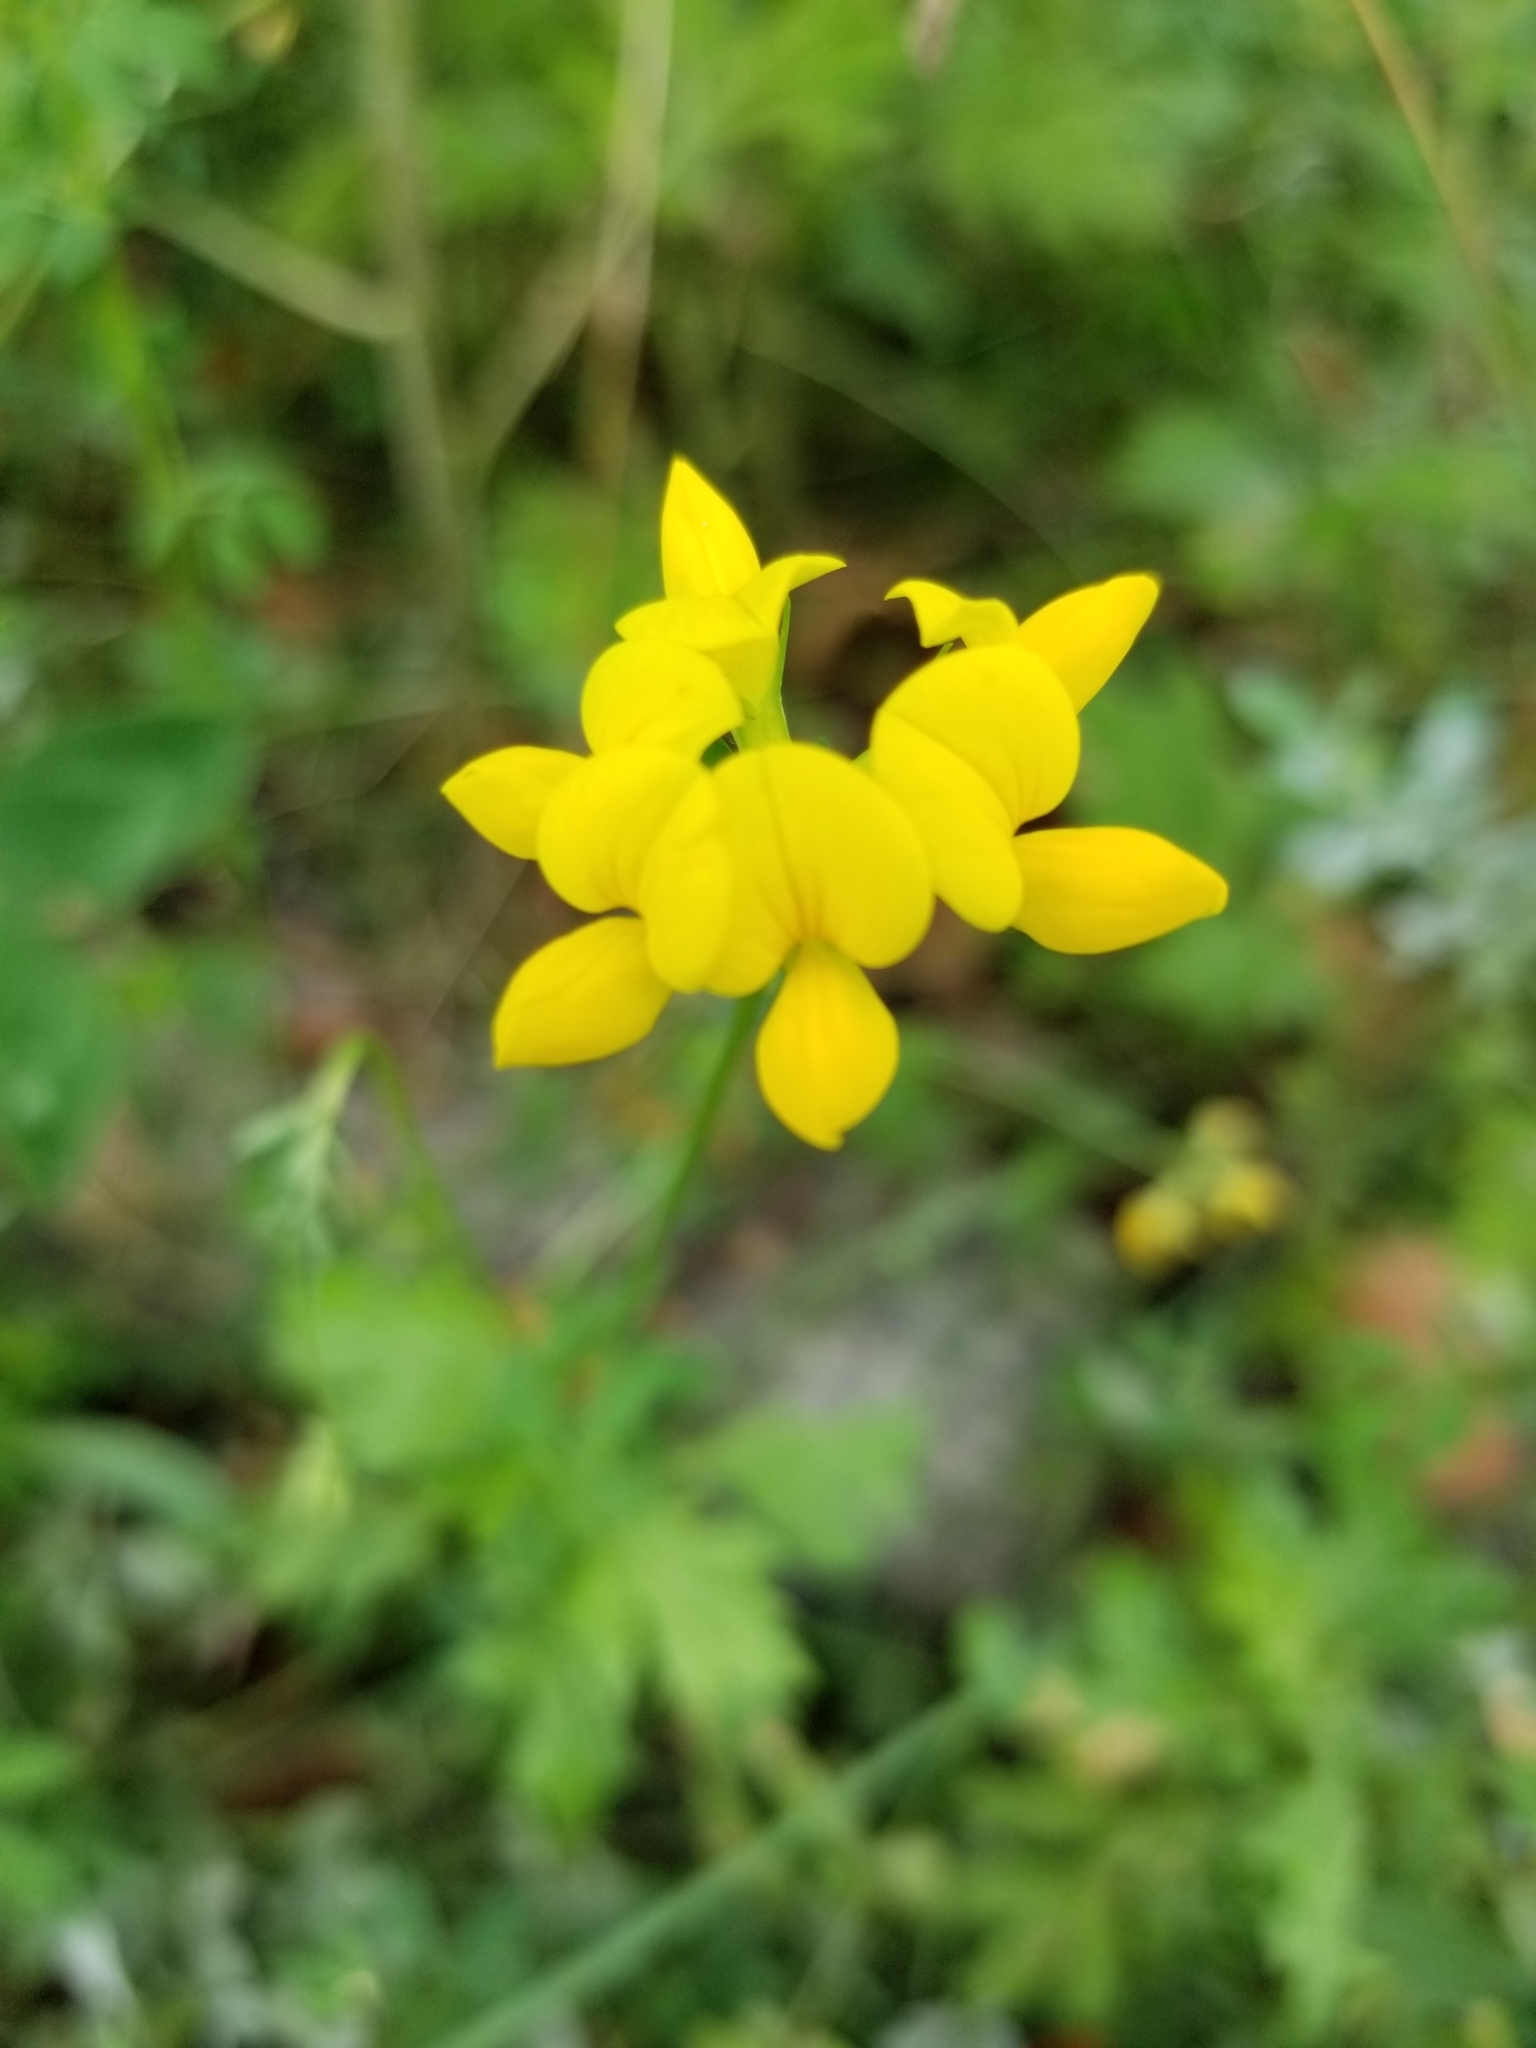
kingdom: Plantae
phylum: Tracheophyta
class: Magnoliopsida
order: Fabales
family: Fabaceae
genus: Lotus
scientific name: Lotus corniculatus
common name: Common bird's-foot-trefoil
